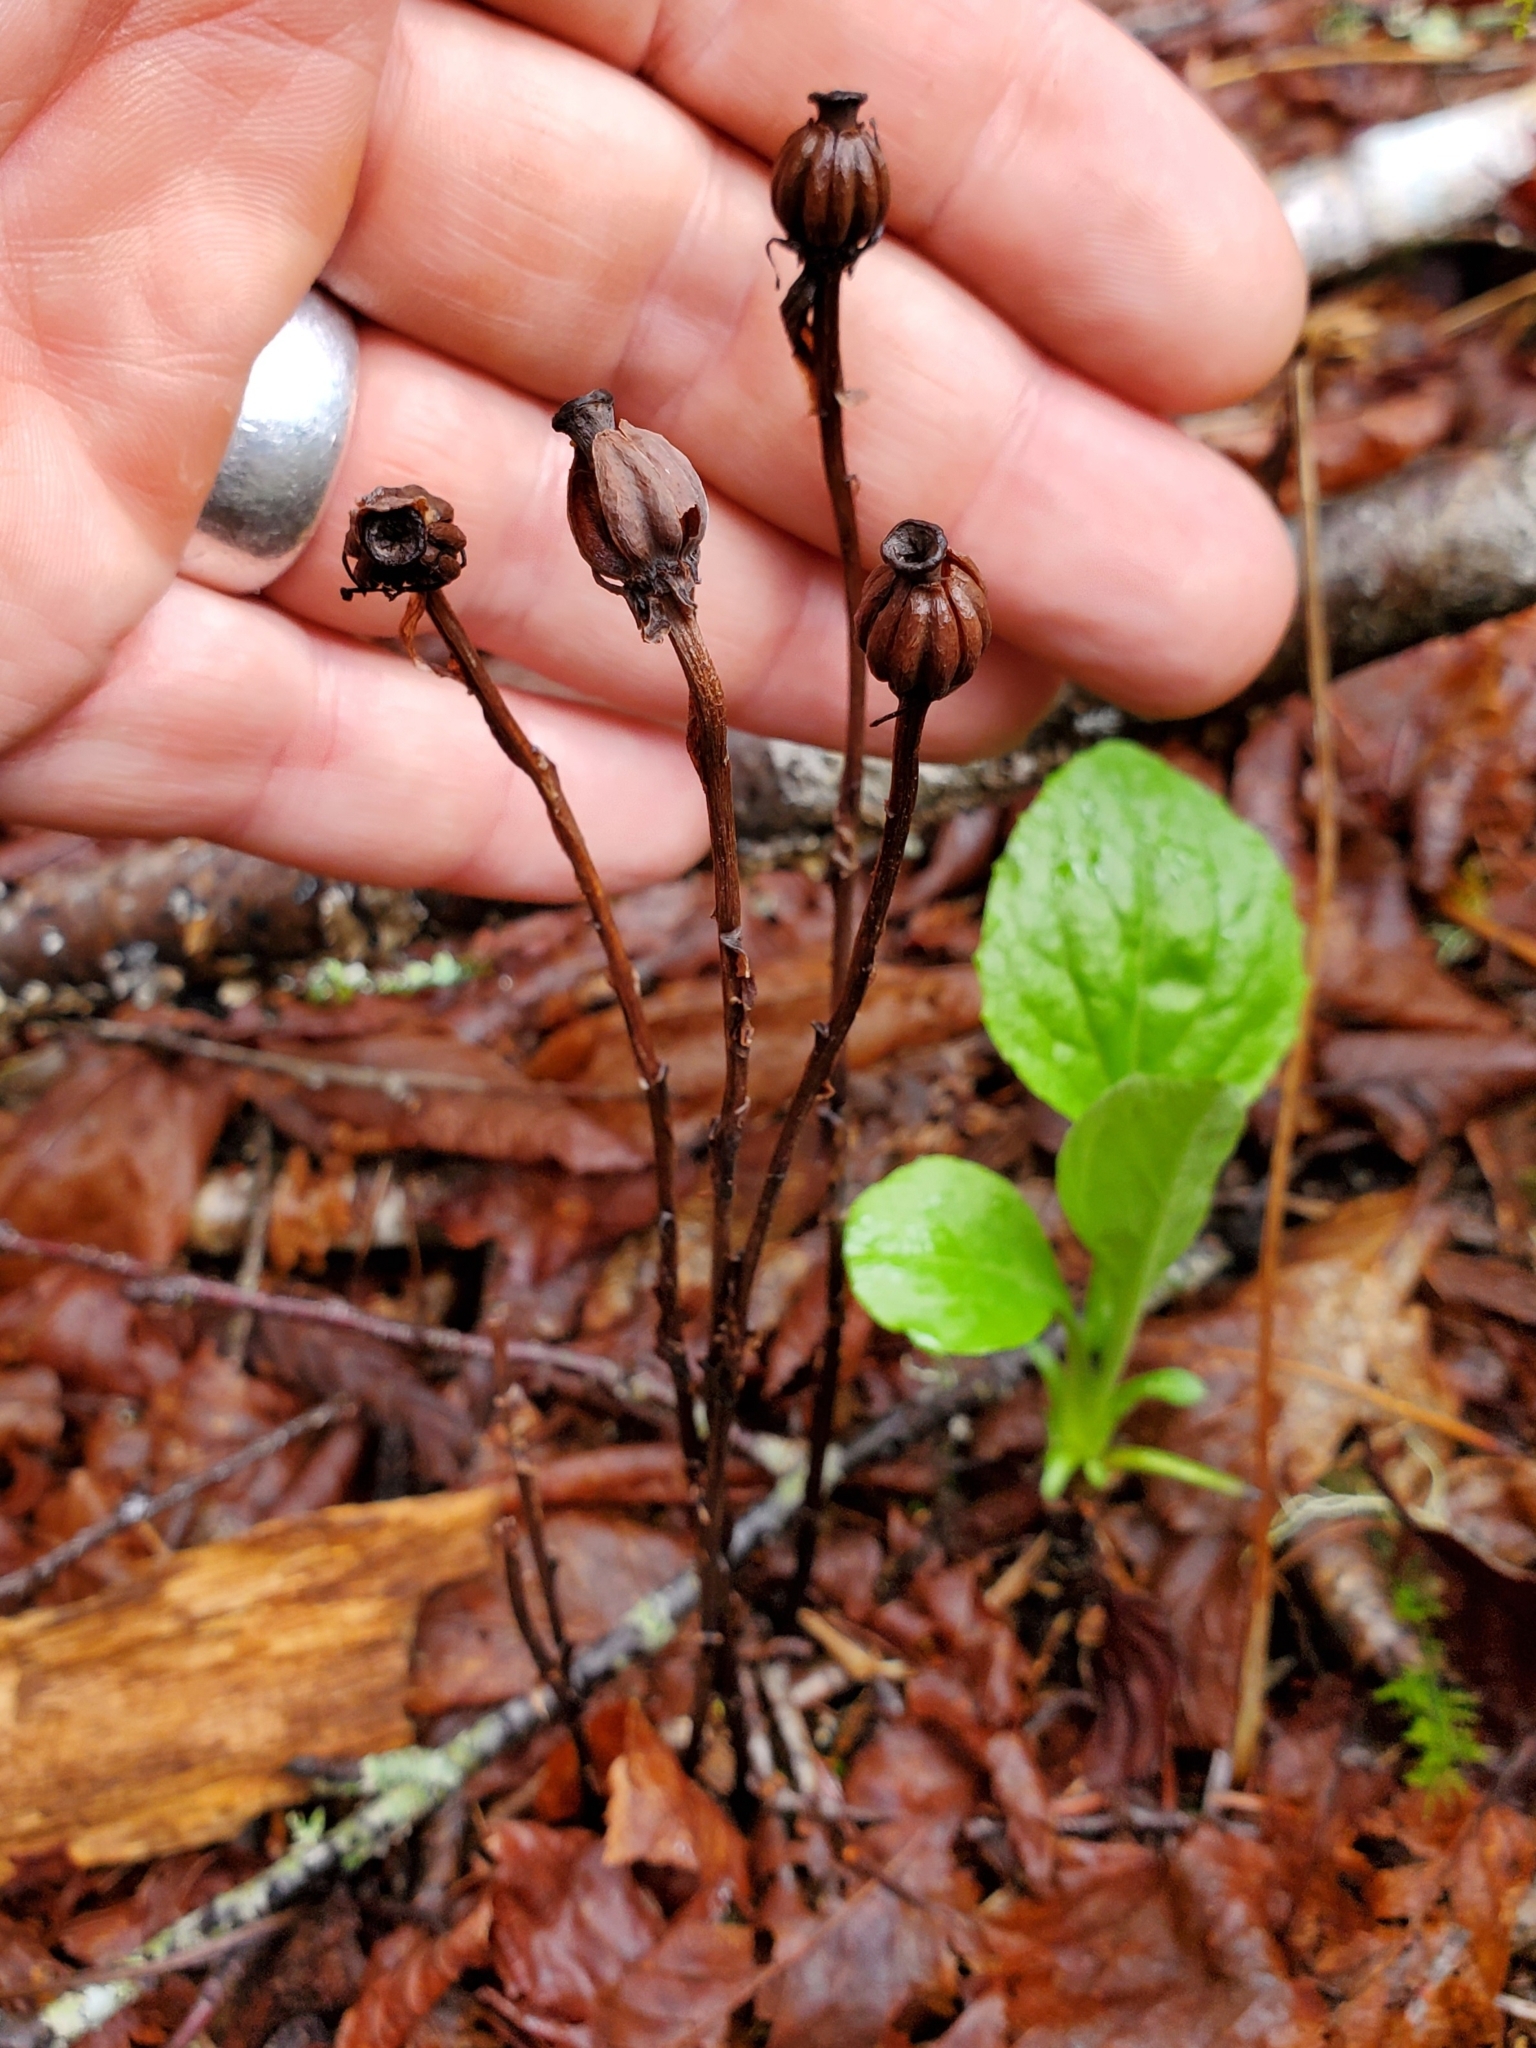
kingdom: Plantae
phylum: Tracheophyta
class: Magnoliopsida
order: Ericales
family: Ericaceae
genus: Monotropa
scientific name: Monotropa uniflora
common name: Convulsion root
